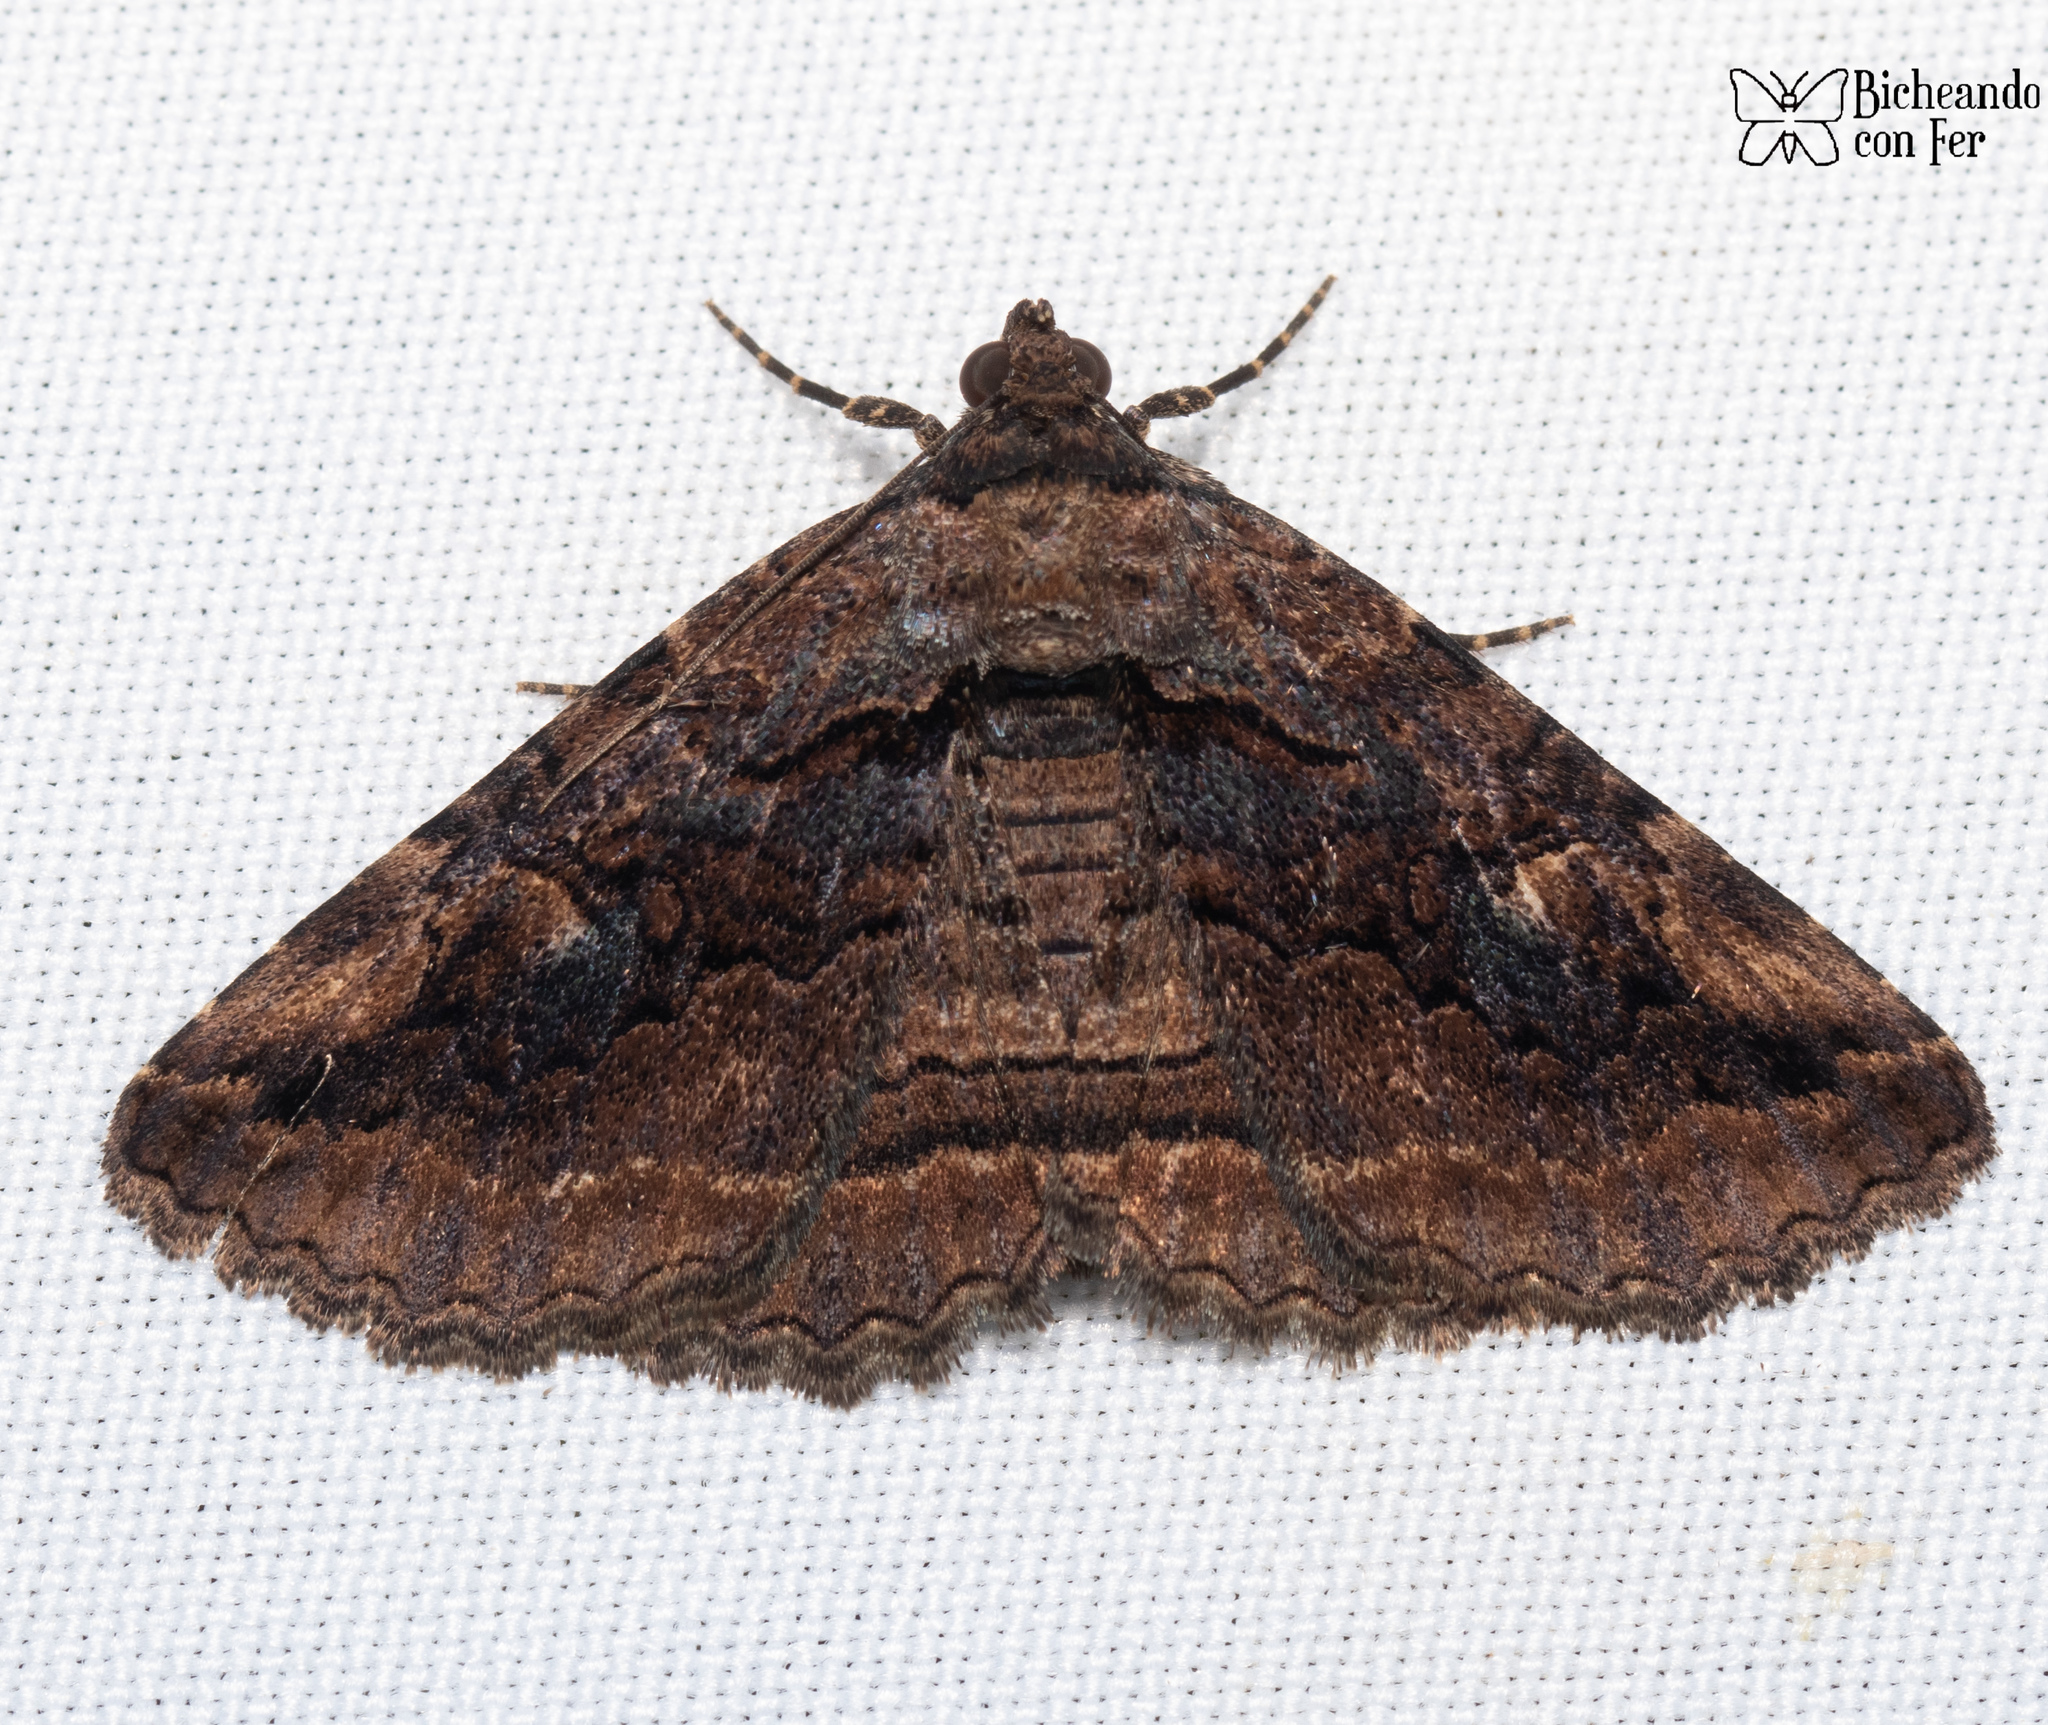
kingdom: Animalia
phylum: Arthropoda
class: Insecta
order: Lepidoptera
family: Erebidae
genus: Zaleops
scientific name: Zaleops umbrina
